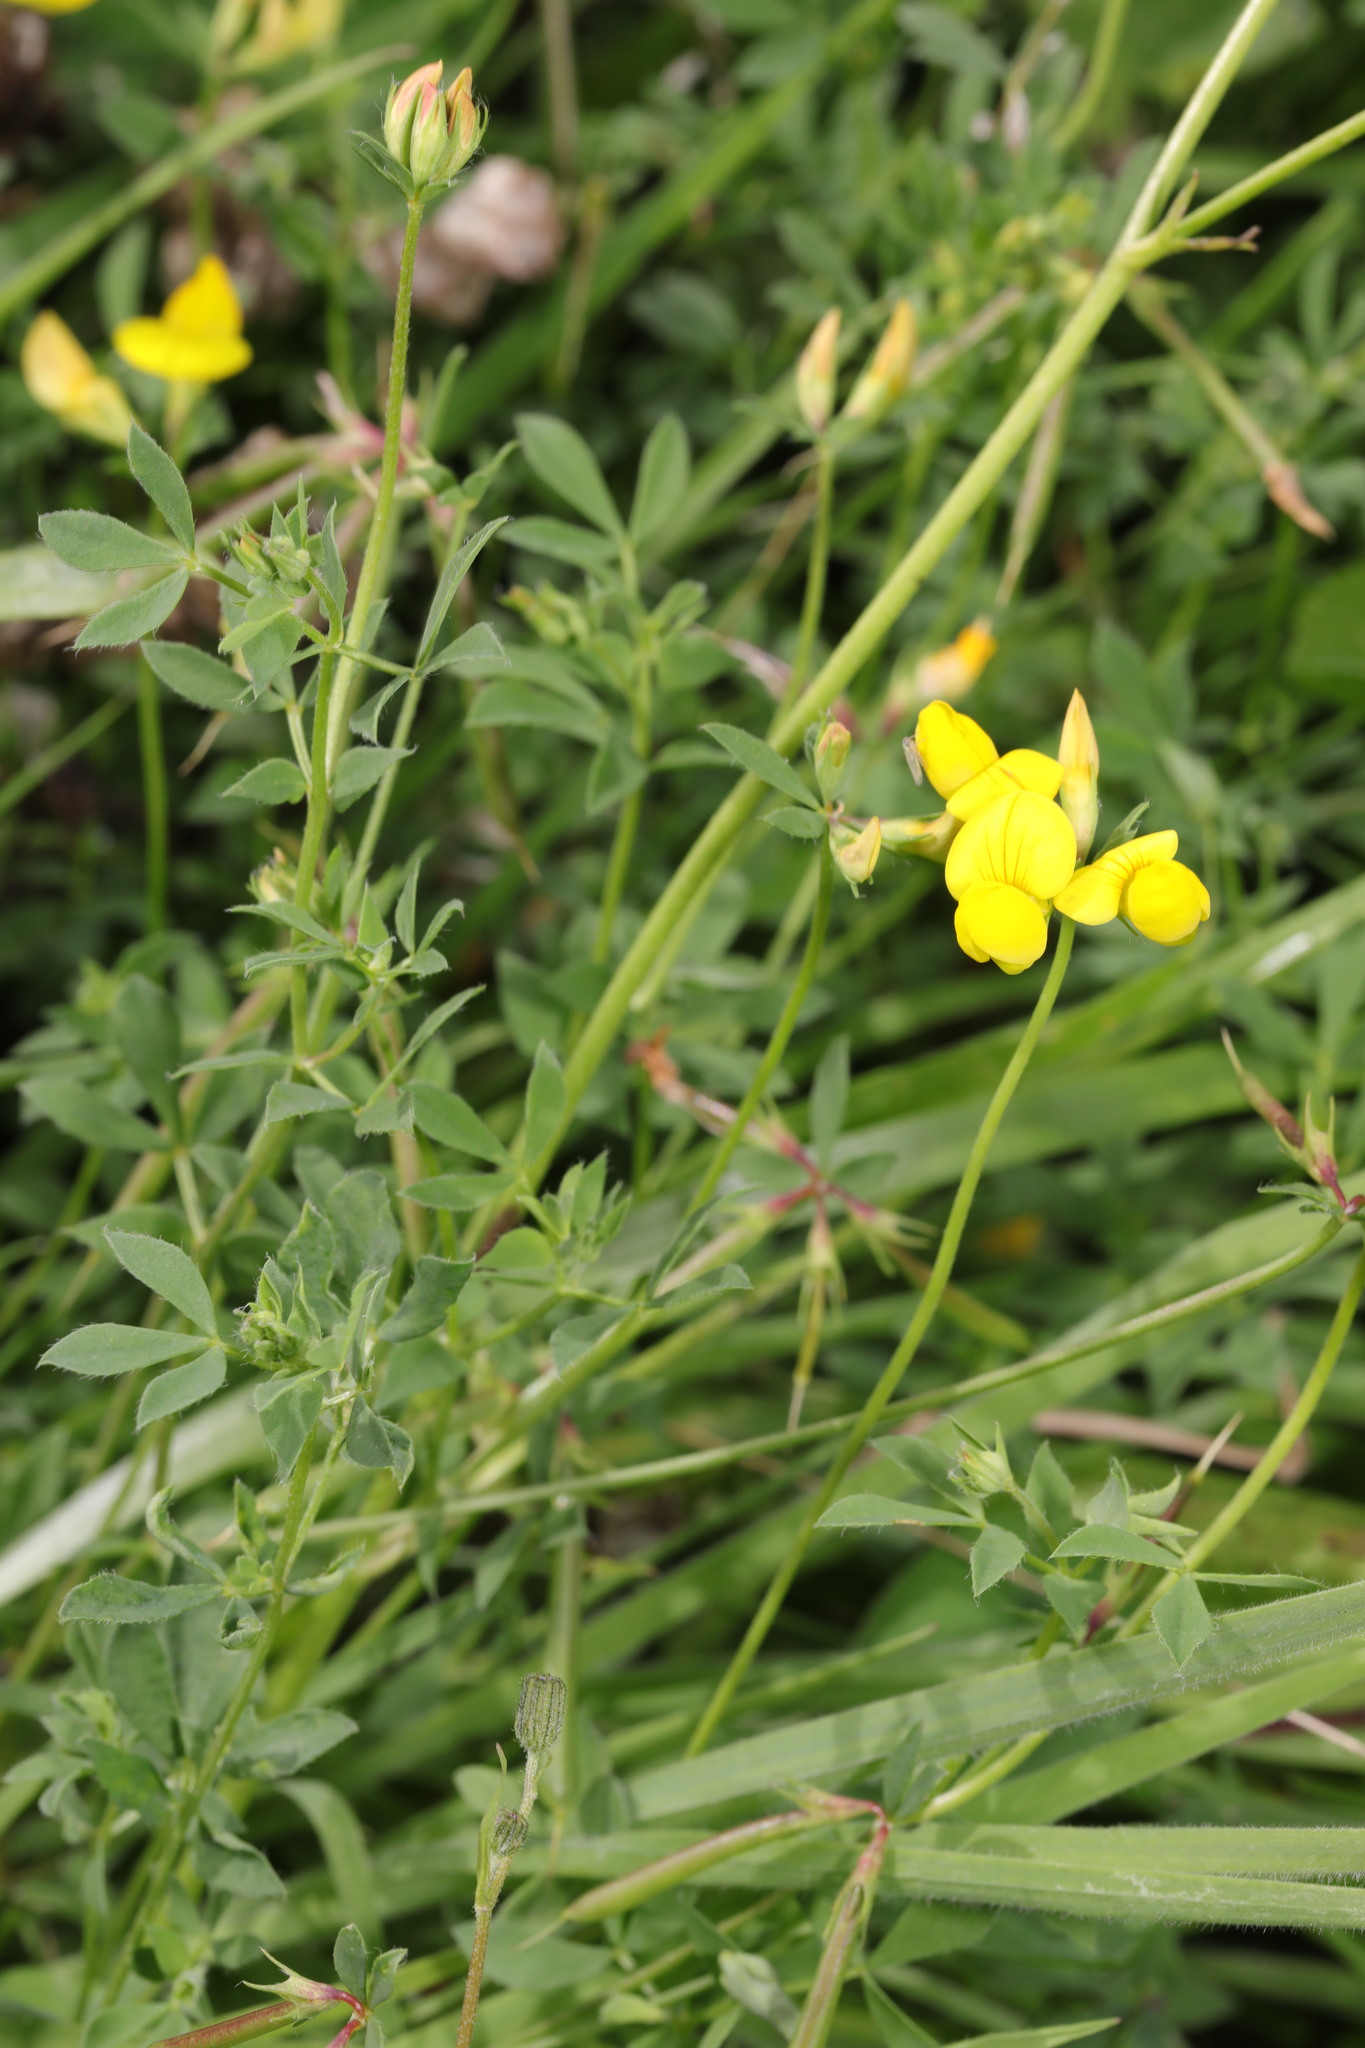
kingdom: Plantae
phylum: Tracheophyta
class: Magnoliopsida
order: Fabales
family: Fabaceae
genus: Lotus
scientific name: Lotus corniculatus
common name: Common bird's-foot-trefoil
